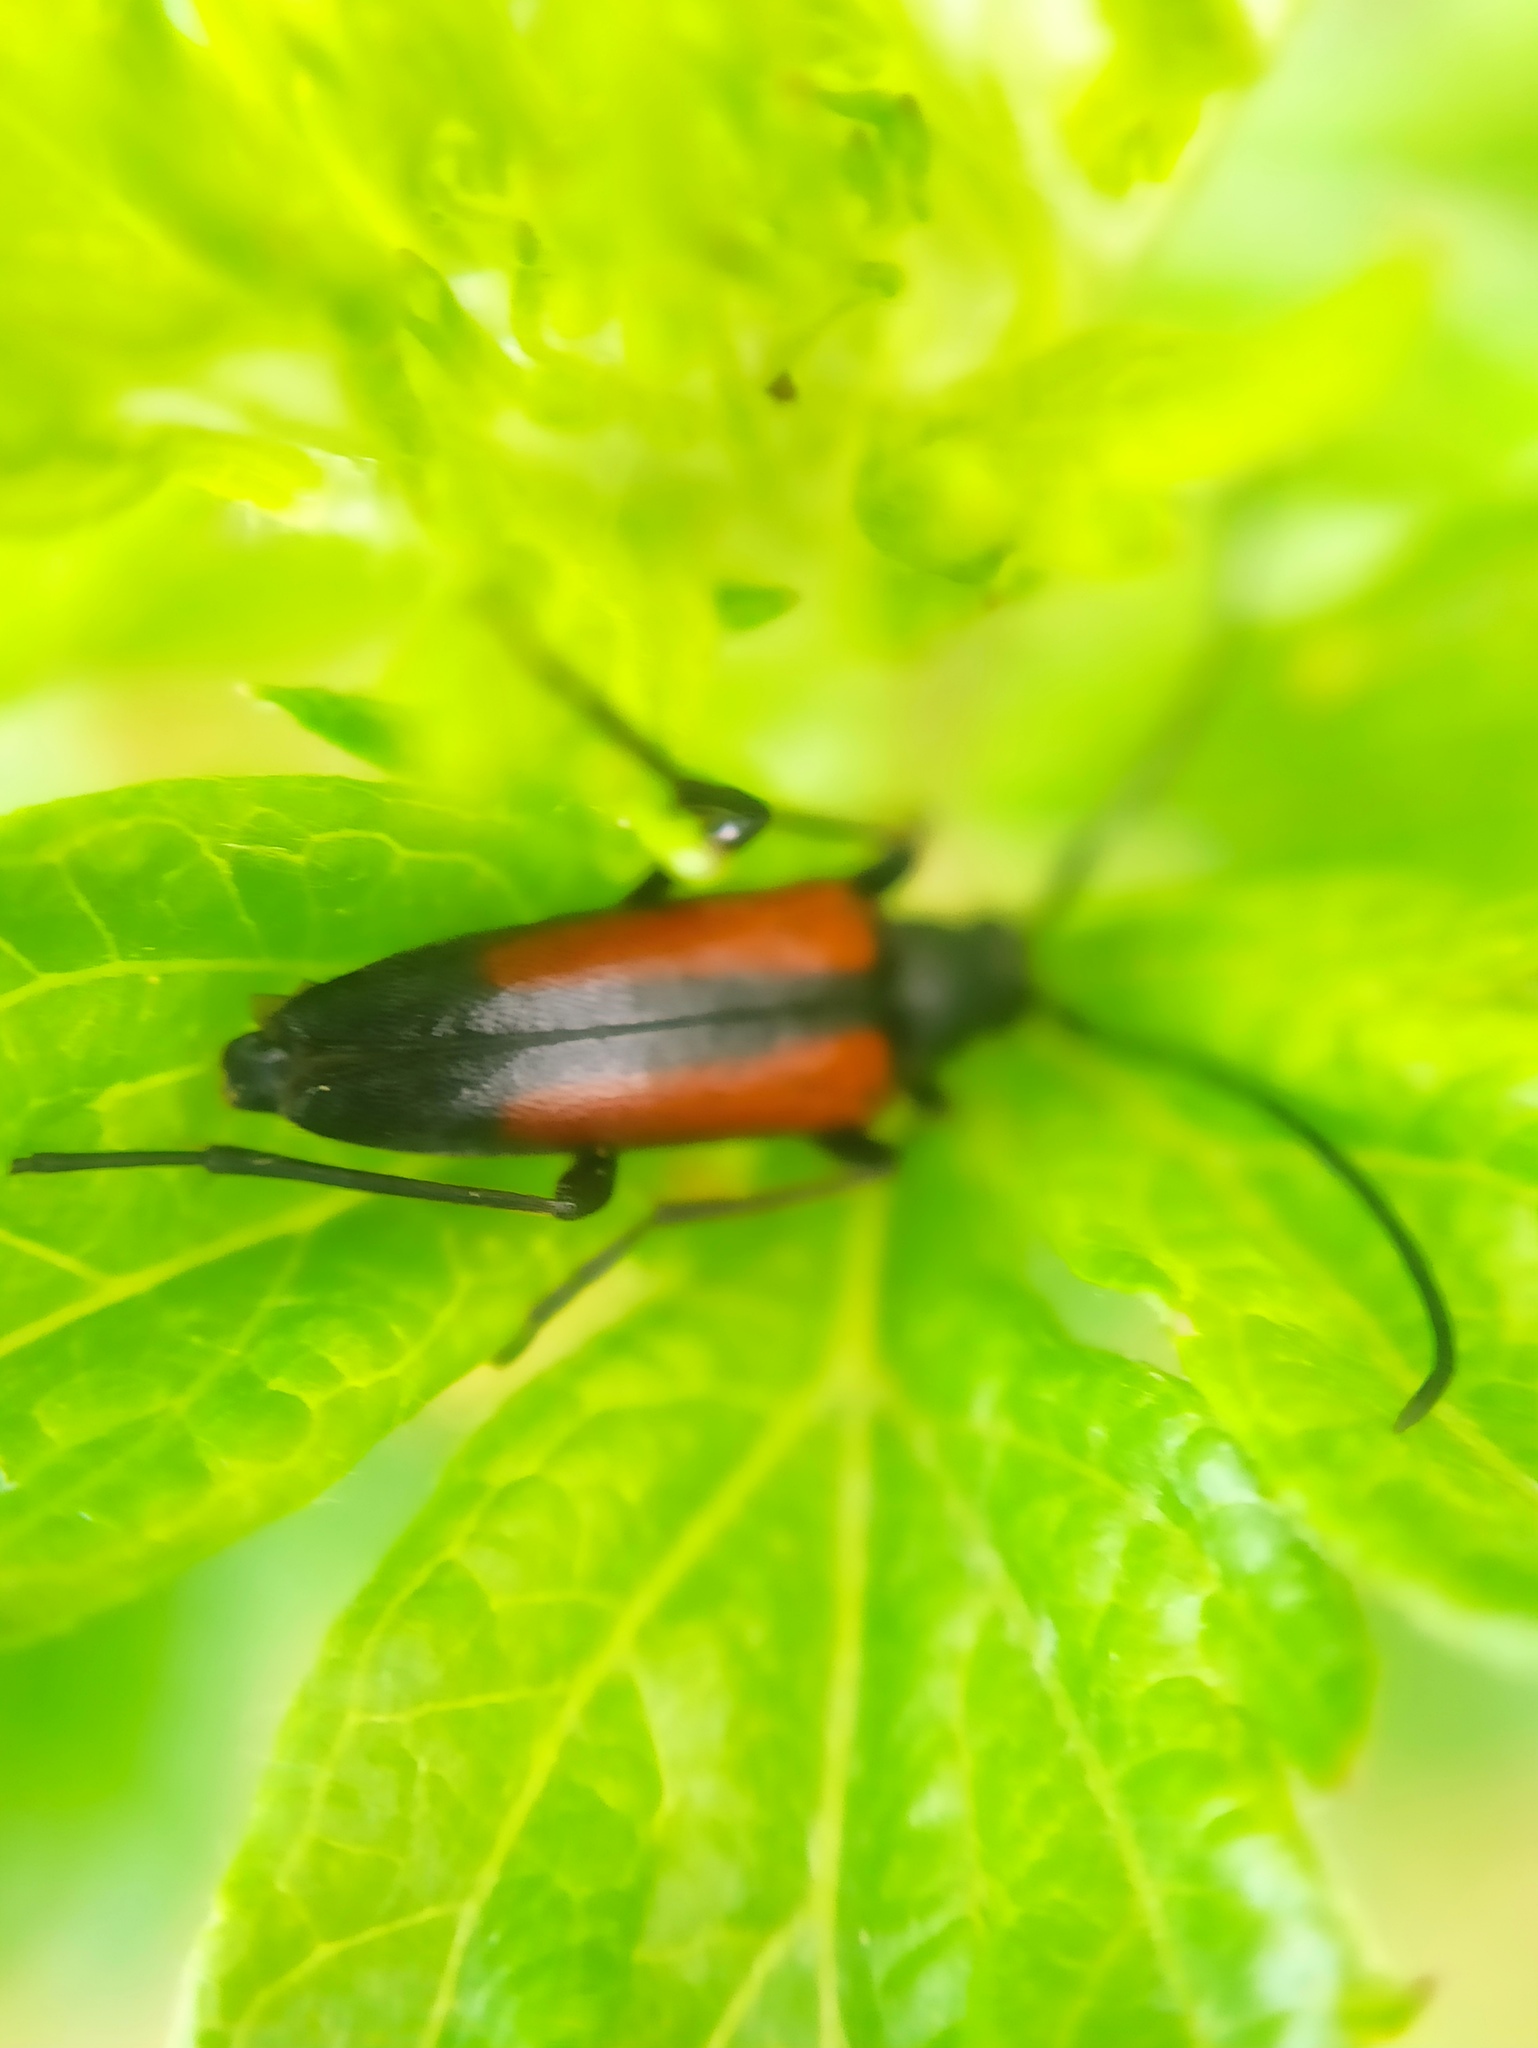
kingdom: Animalia
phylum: Arthropoda
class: Insecta
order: Coleoptera
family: Cerambycidae
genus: Stenurella
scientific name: Stenurella melanura
